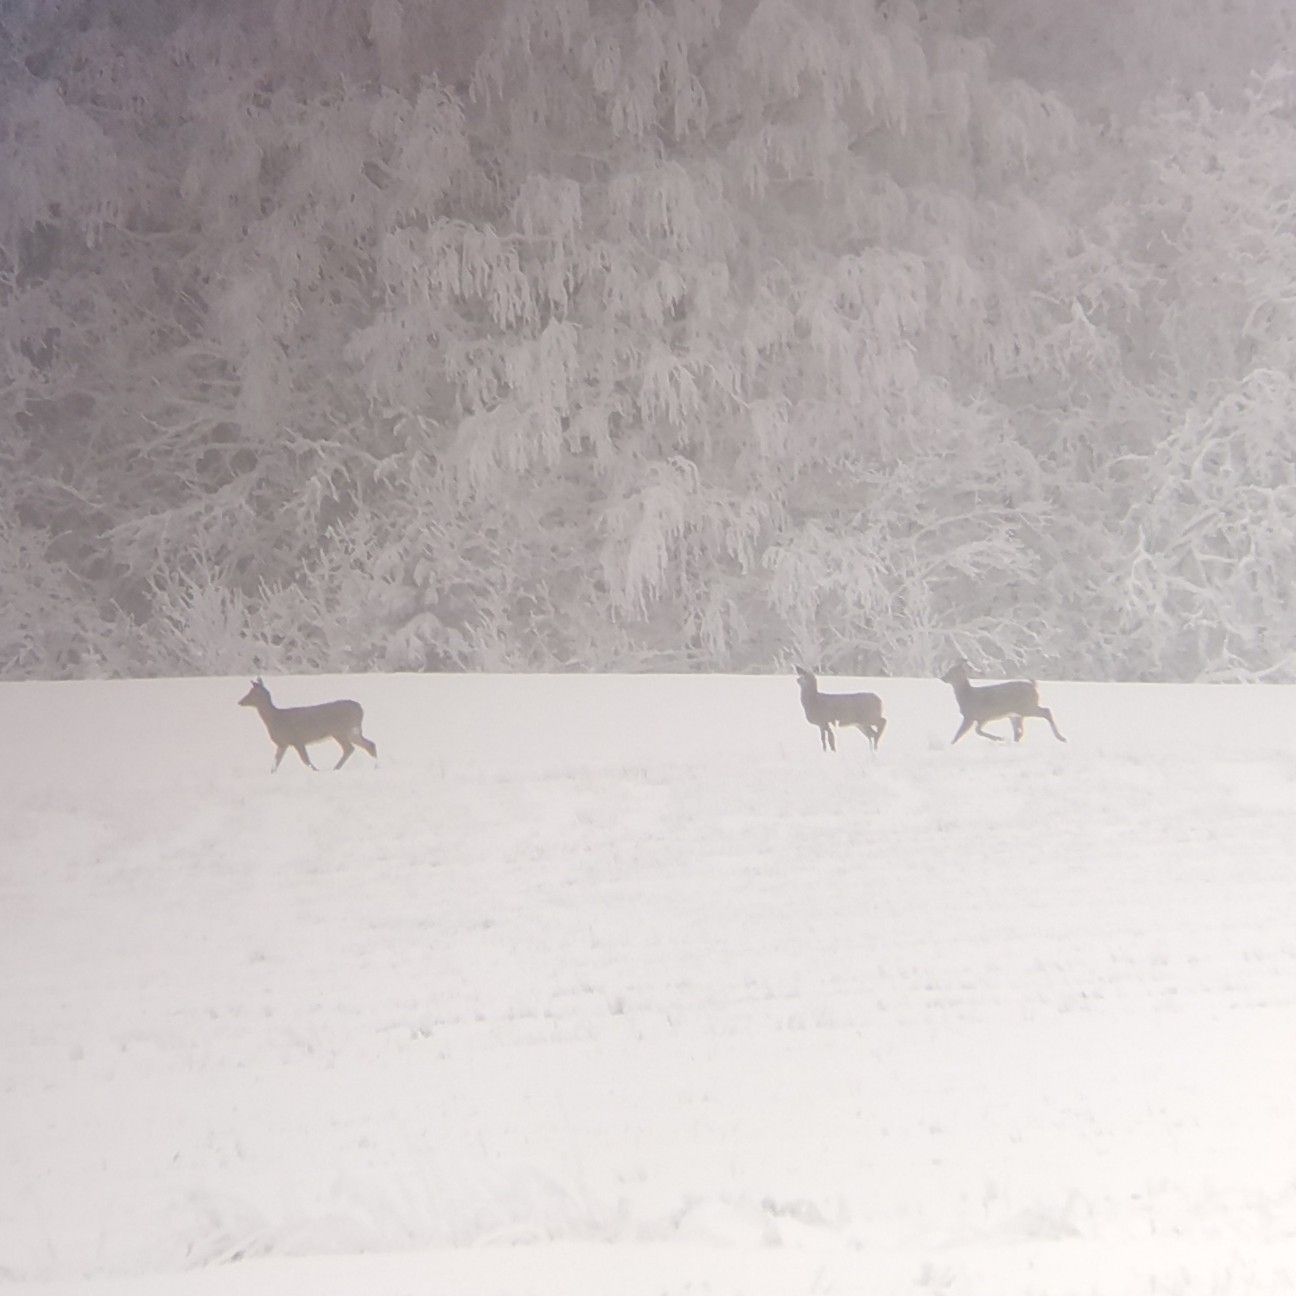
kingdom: Animalia
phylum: Chordata
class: Mammalia
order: Artiodactyla
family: Cervidae
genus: Odocoileus
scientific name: Odocoileus virginianus
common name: White-tailed deer
